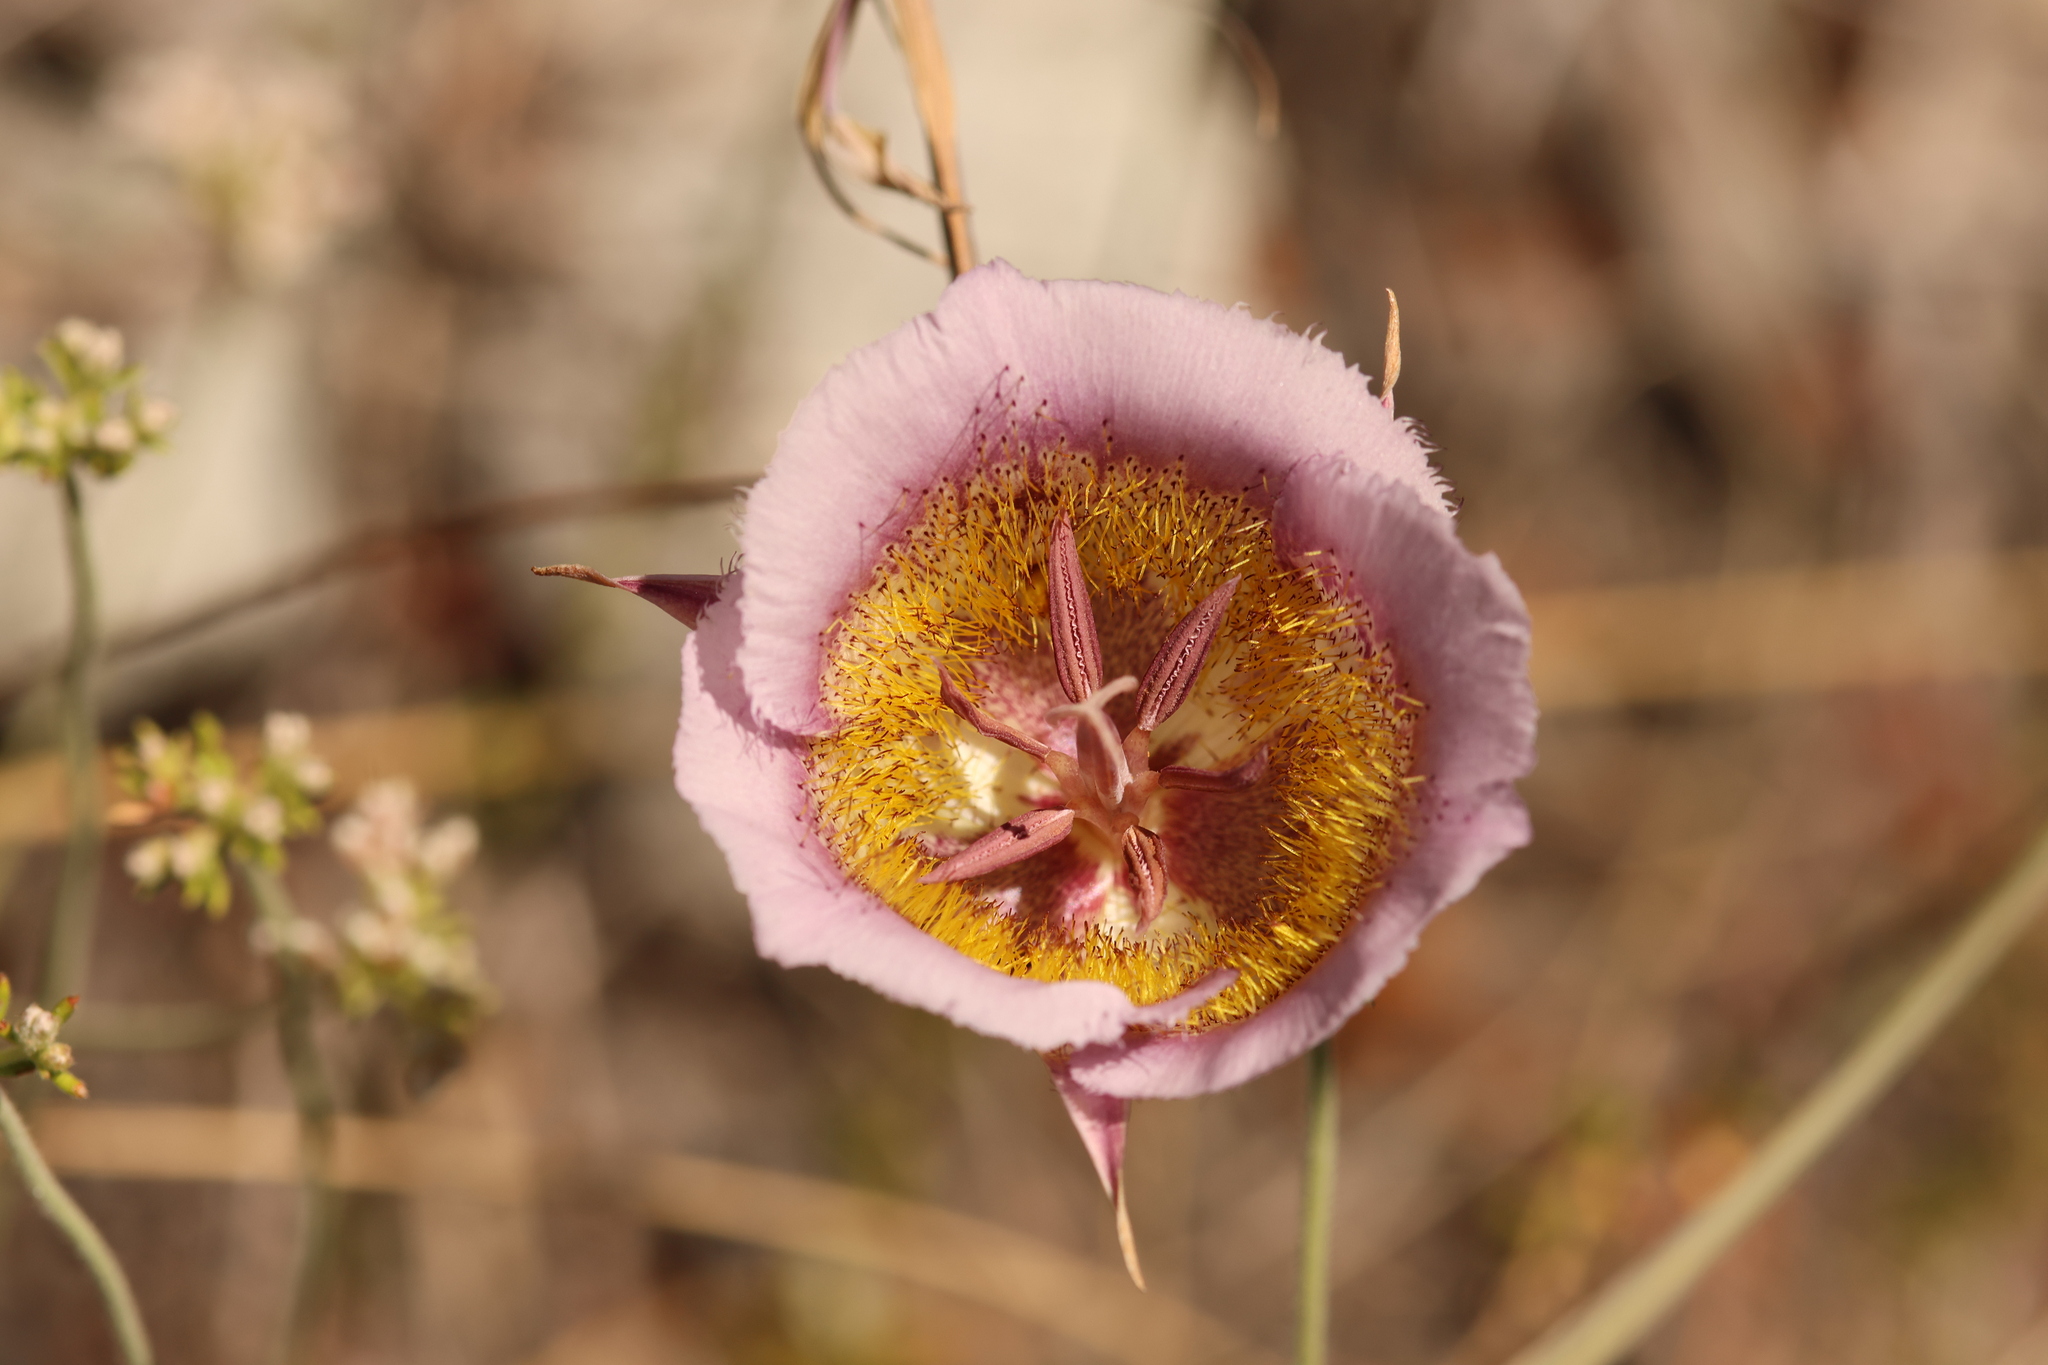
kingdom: Plantae
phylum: Tracheophyta
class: Liliopsida
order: Liliales
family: Liliaceae
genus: Calochortus
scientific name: Calochortus plummerae
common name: Plummer's mariposa-lily
